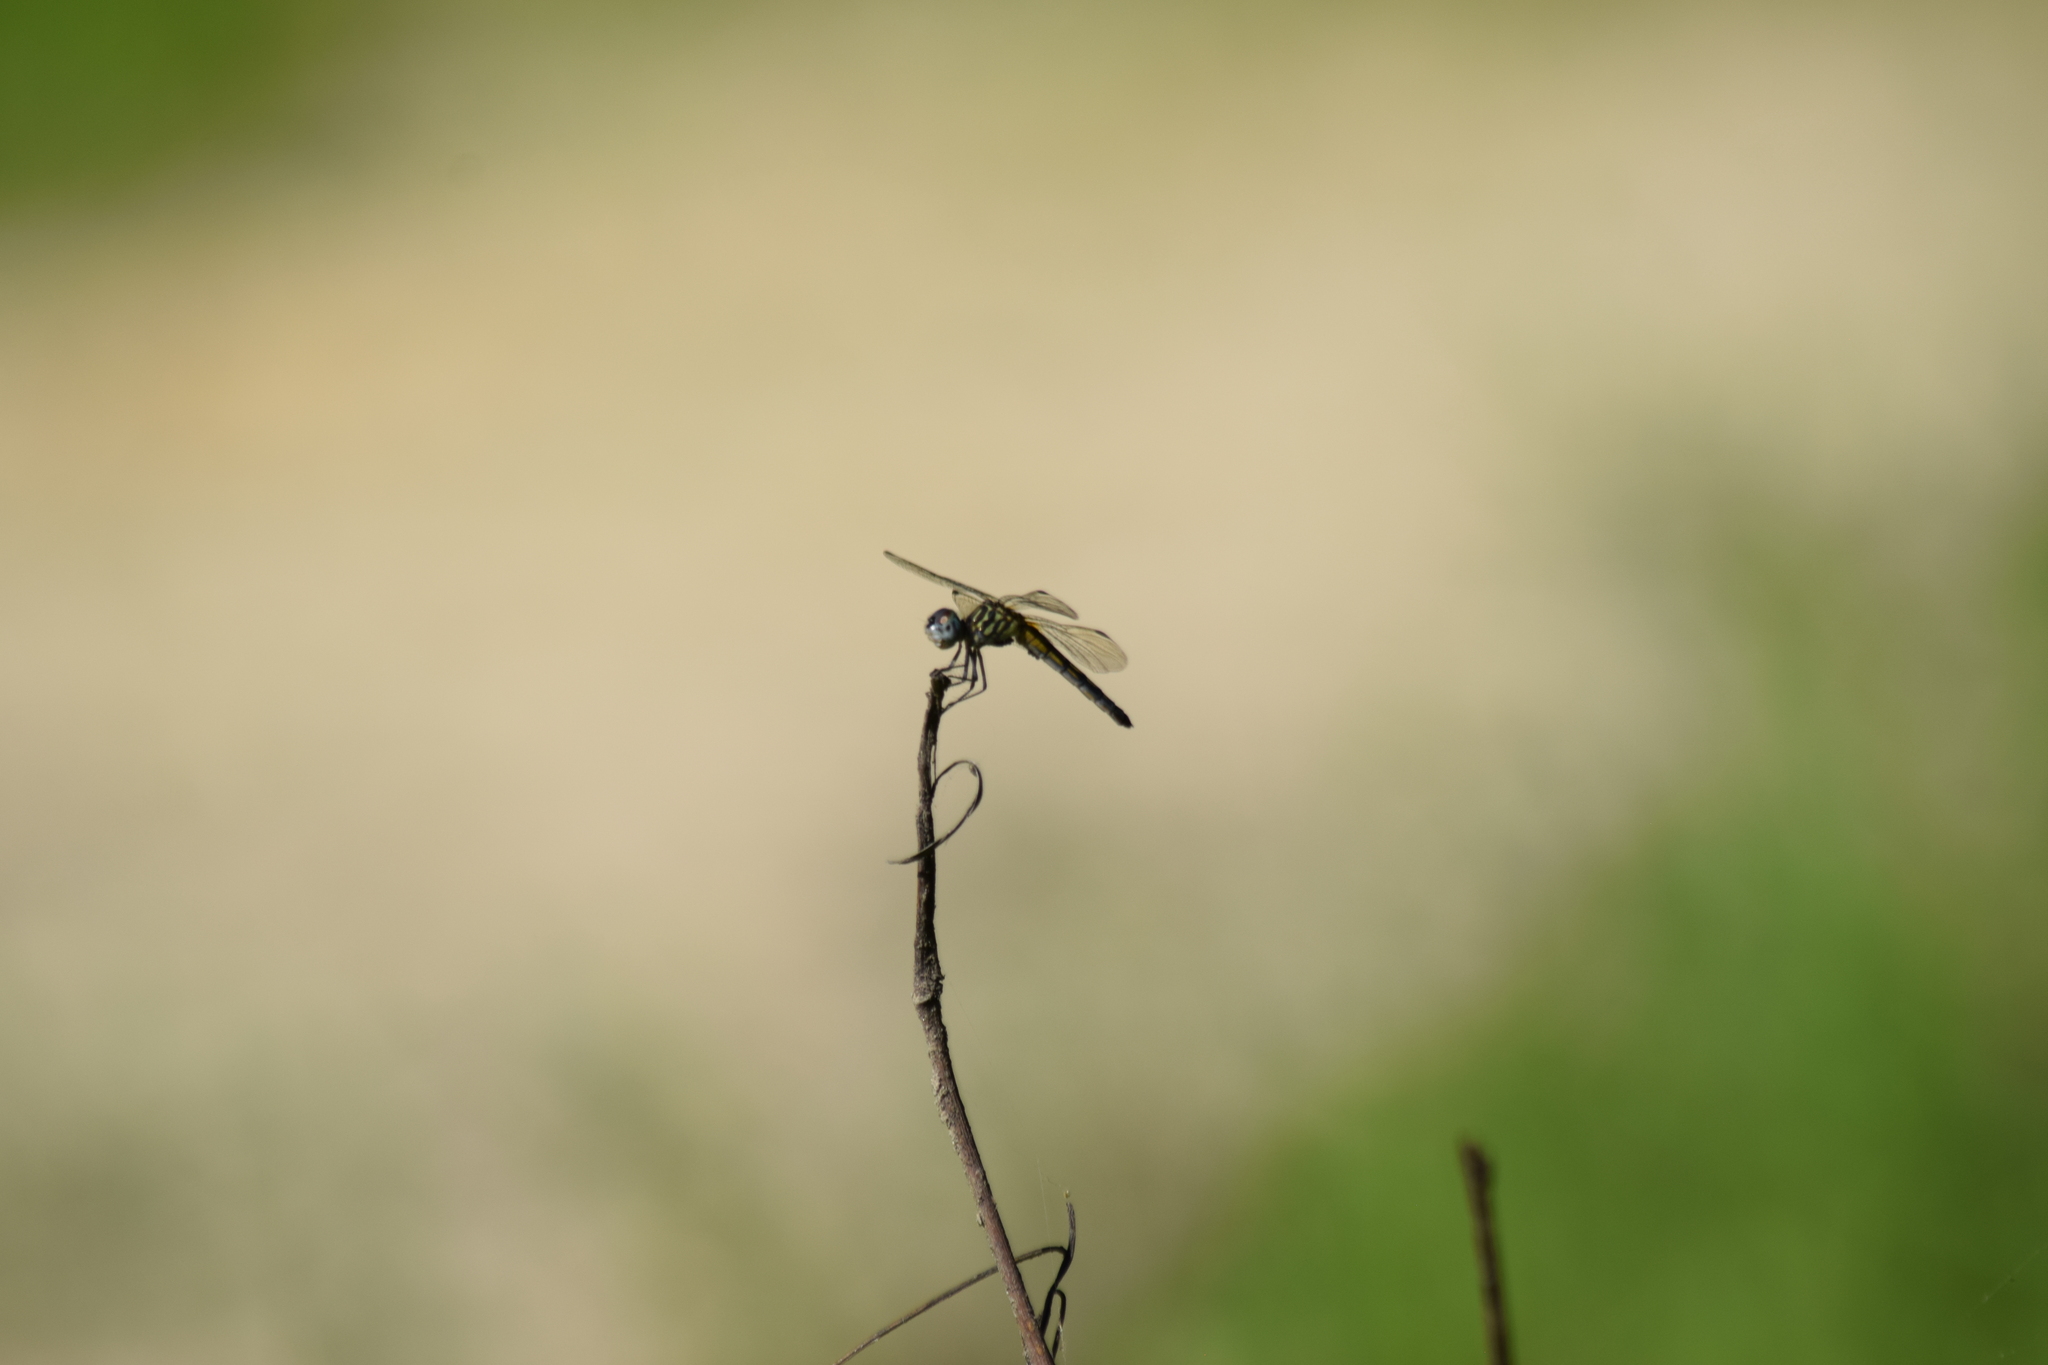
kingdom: Animalia
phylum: Arthropoda
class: Insecta
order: Odonata
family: Libellulidae
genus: Pachydiplax
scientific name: Pachydiplax longipennis
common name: Blue dasher
